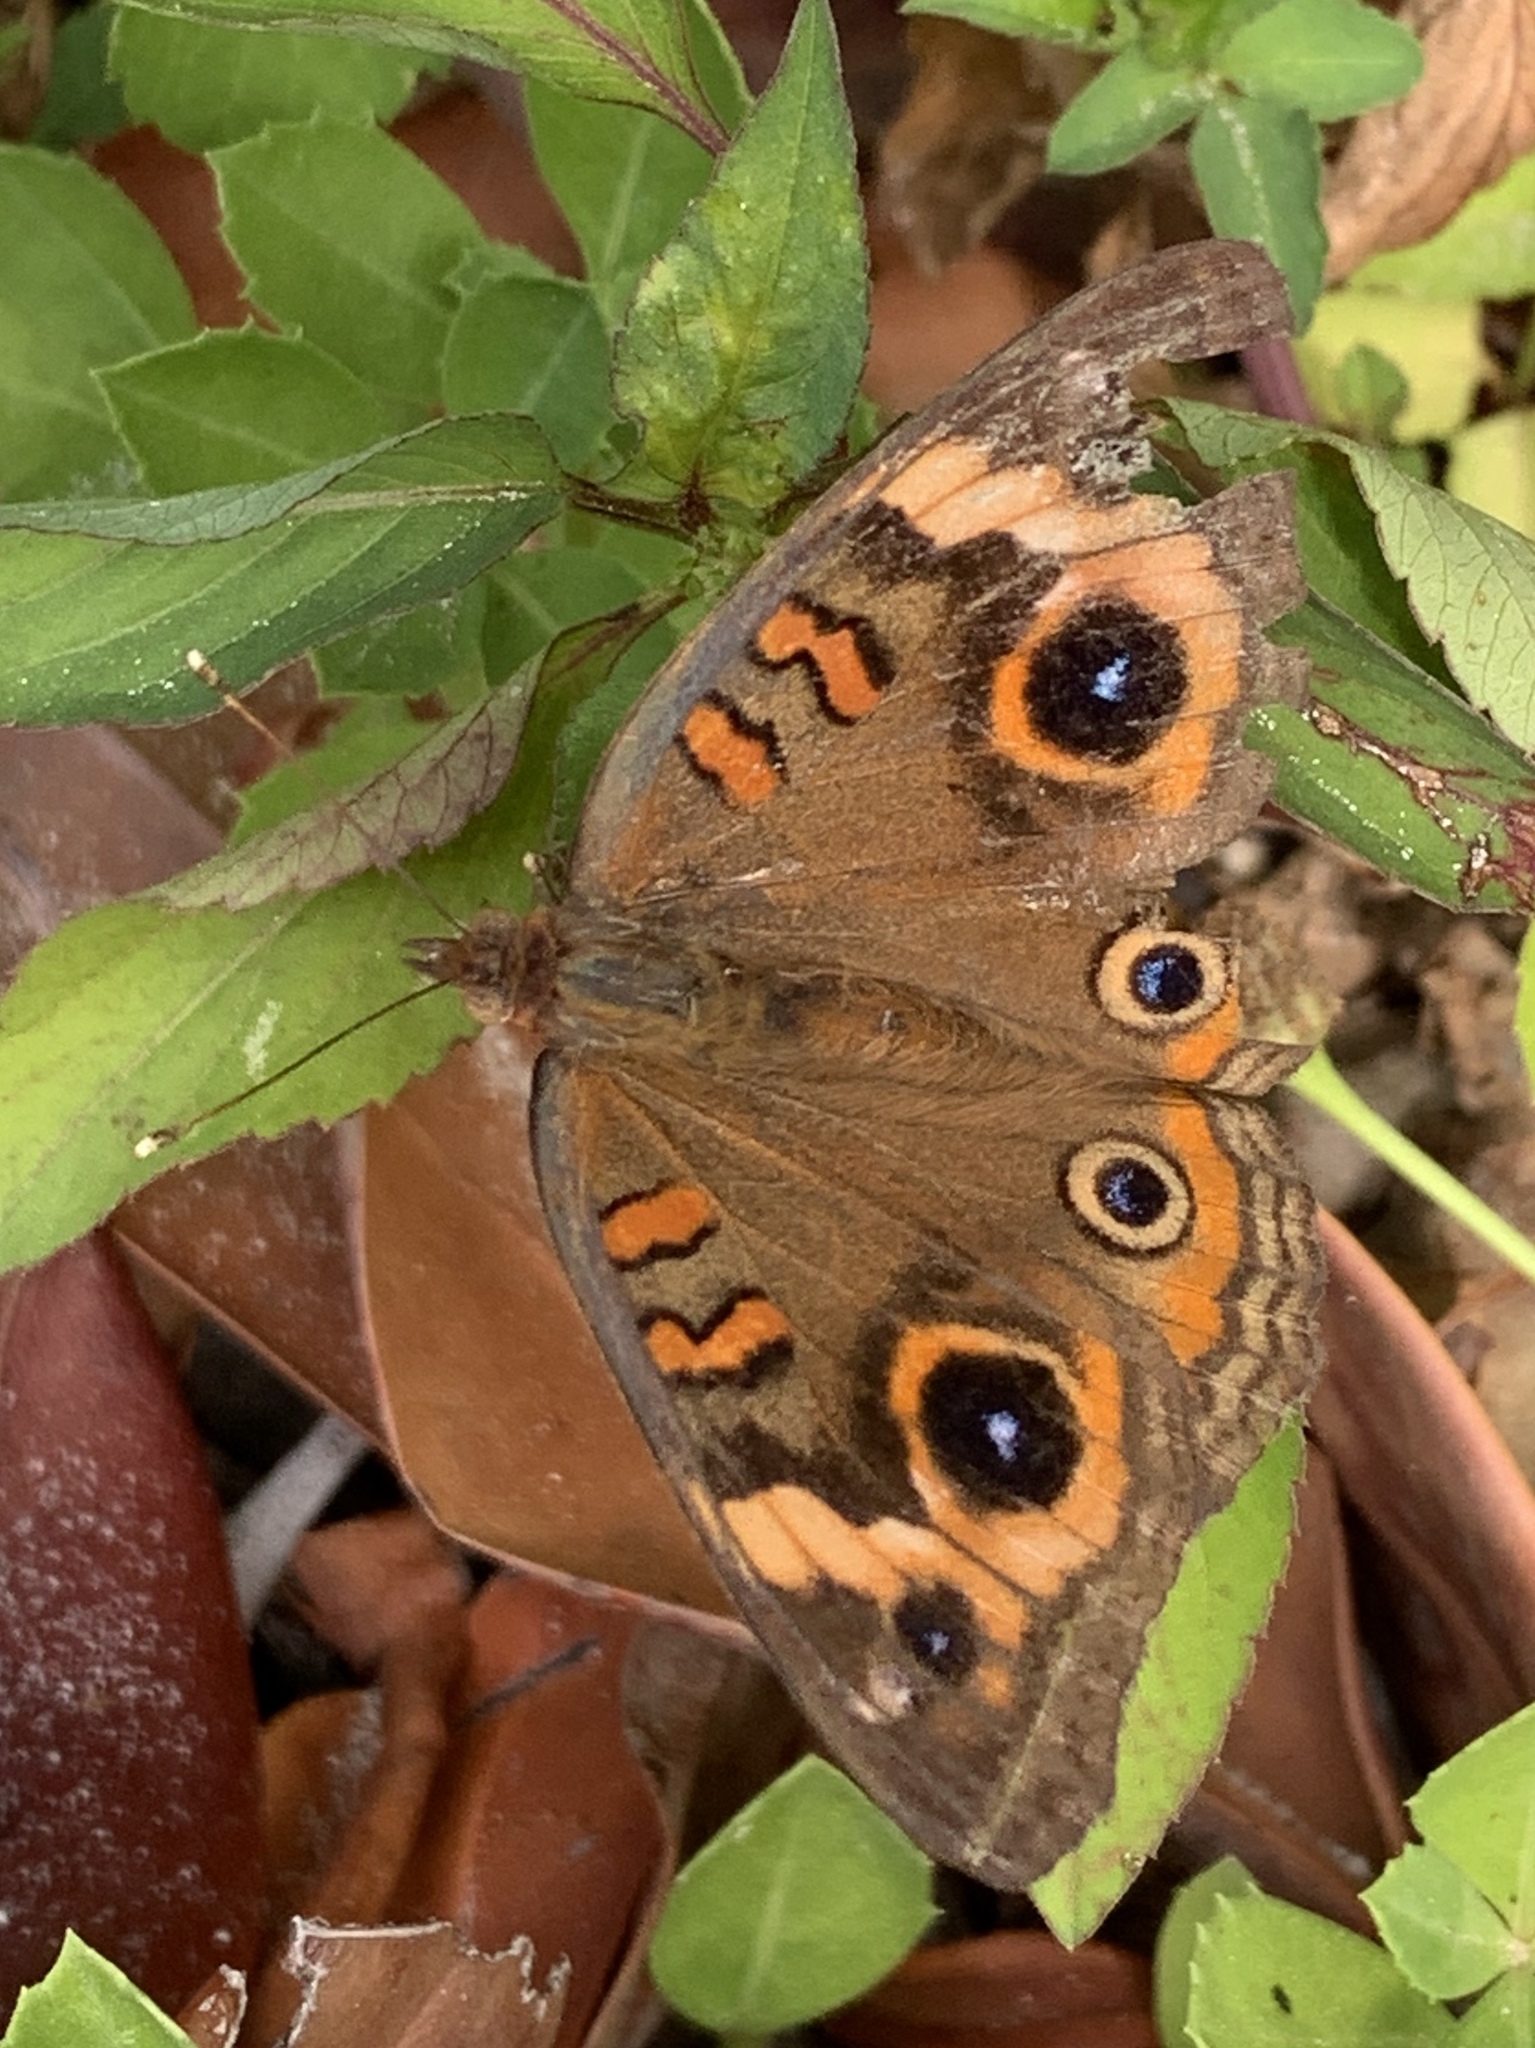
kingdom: Animalia
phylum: Arthropoda
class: Insecta
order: Lepidoptera
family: Nymphalidae
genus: Junonia
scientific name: Junonia neildi
